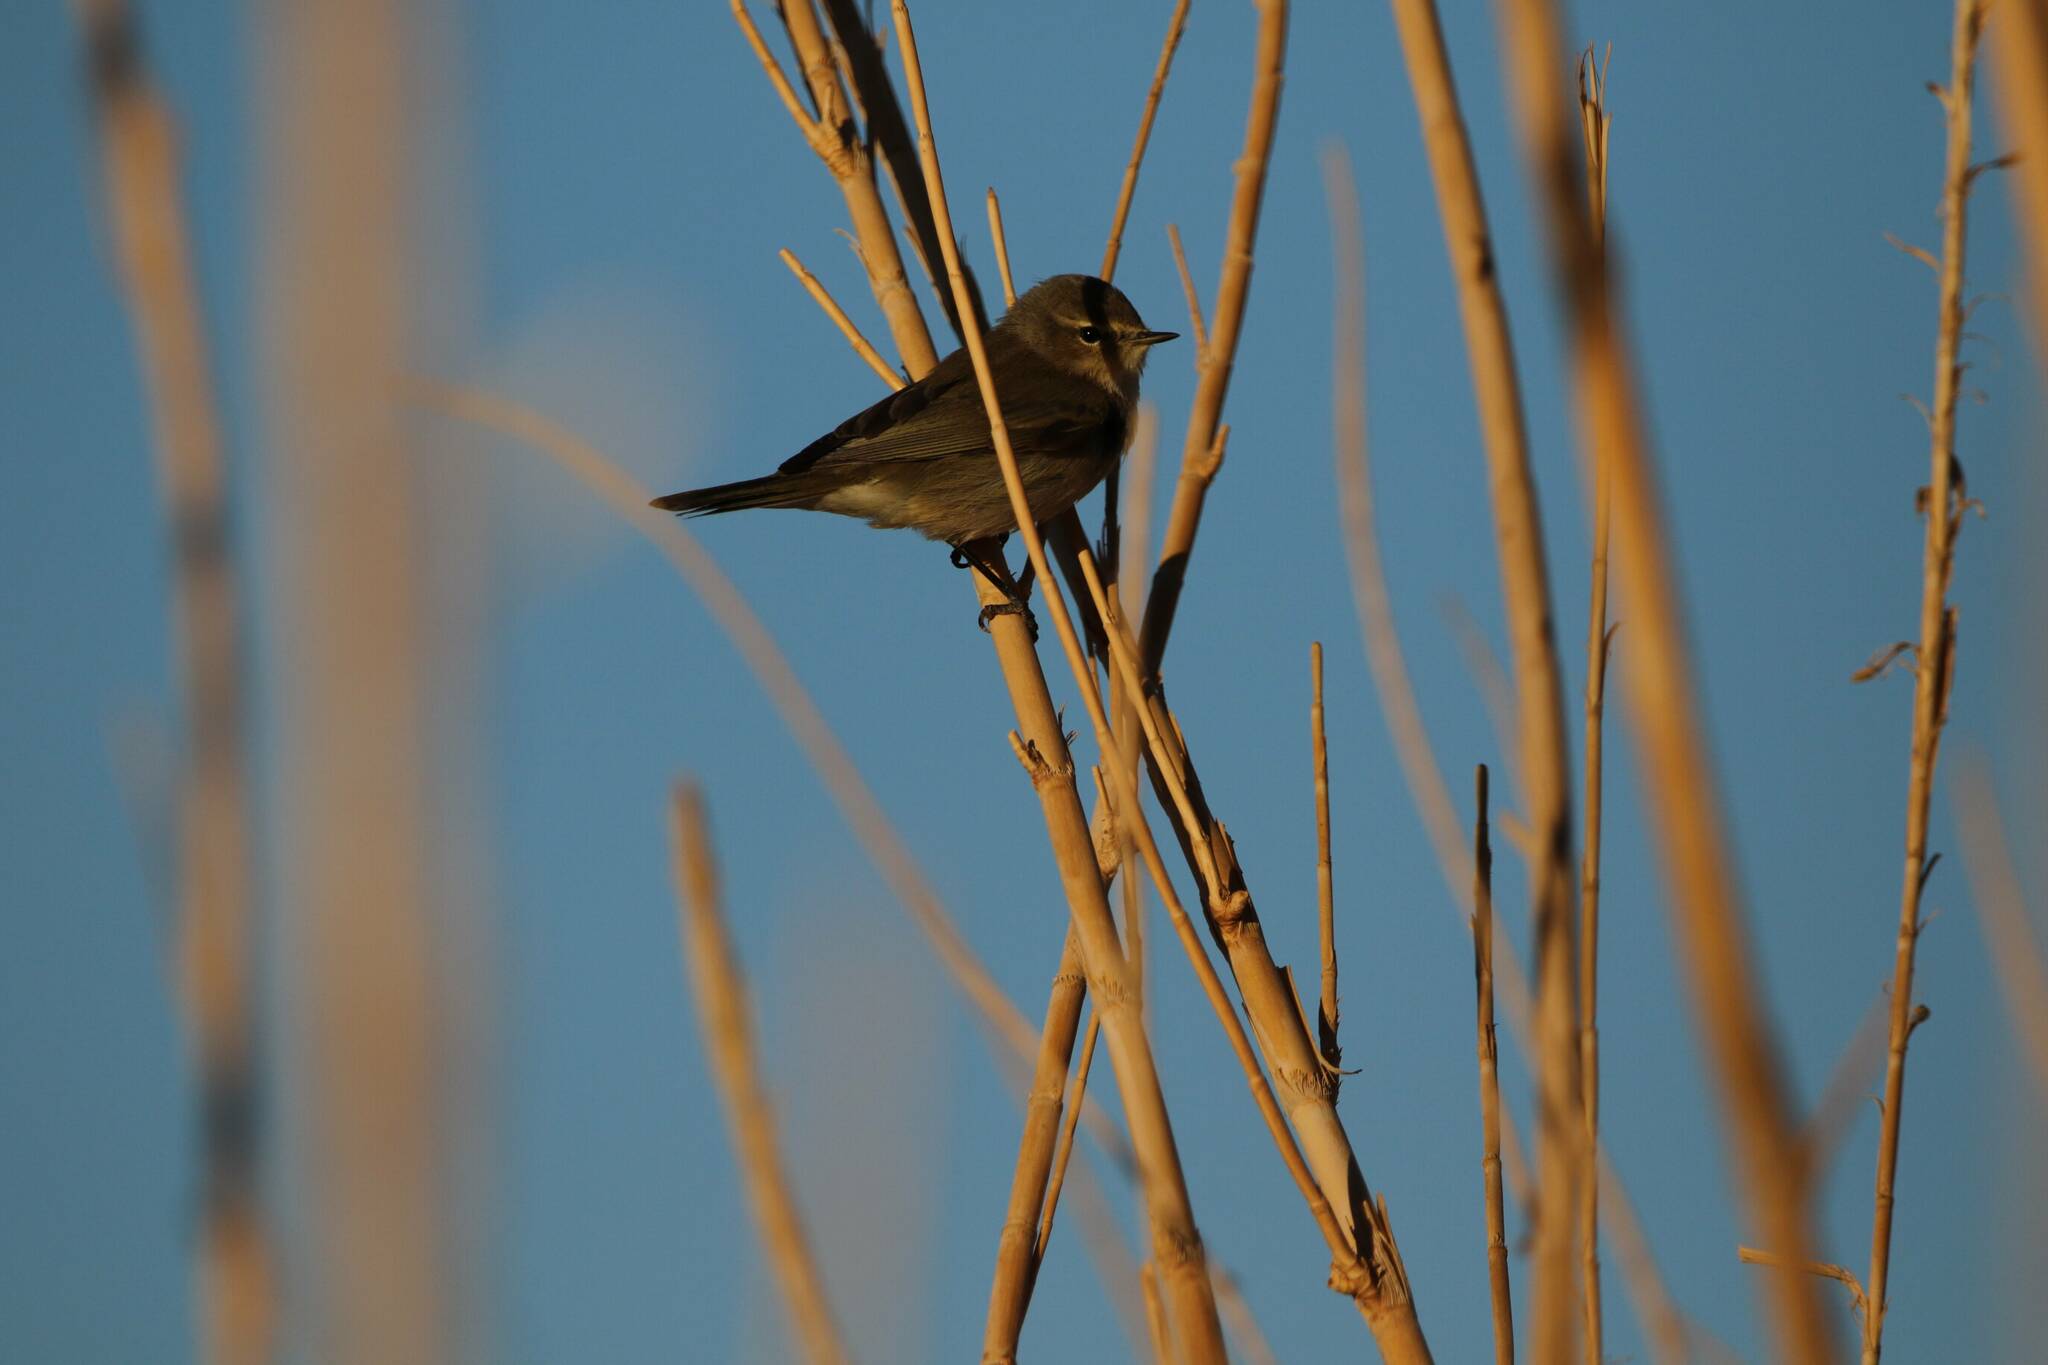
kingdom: Animalia
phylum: Chordata
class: Aves
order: Passeriformes
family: Phylloscopidae
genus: Phylloscopus
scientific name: Phylloscopus collybita
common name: Common chiffchaff
